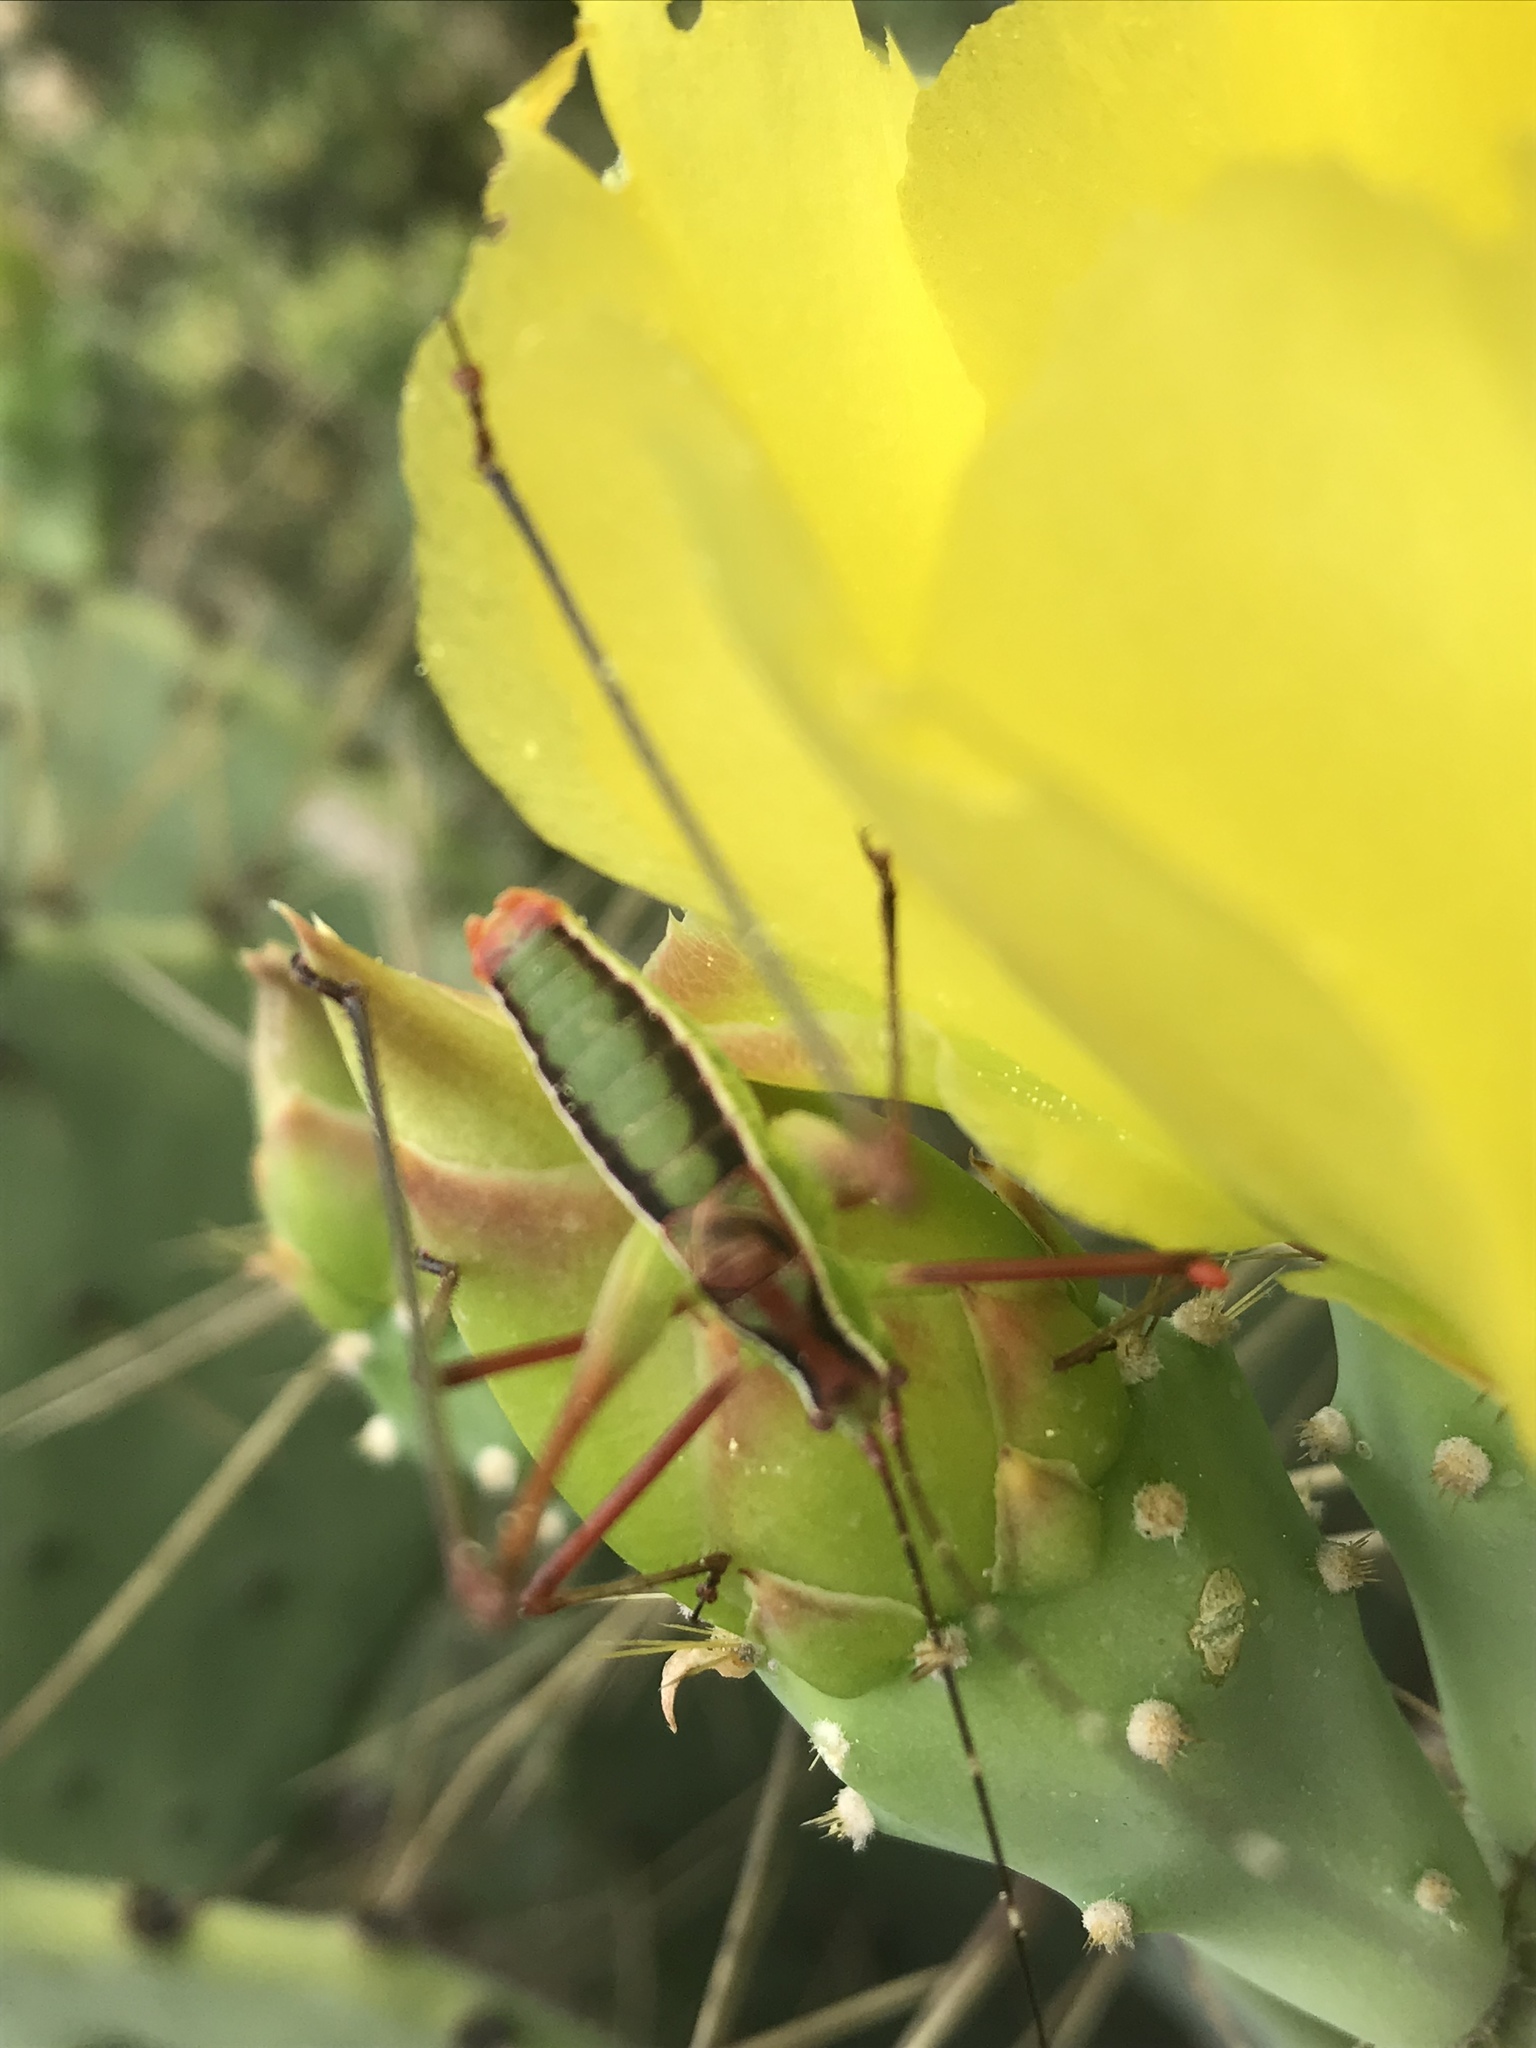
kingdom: Animalia
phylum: Arthropoda
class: Insecta
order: Orthoptera
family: Tettigoniidae
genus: Rhabdocerca
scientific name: Rhabdocerca tridactyla
